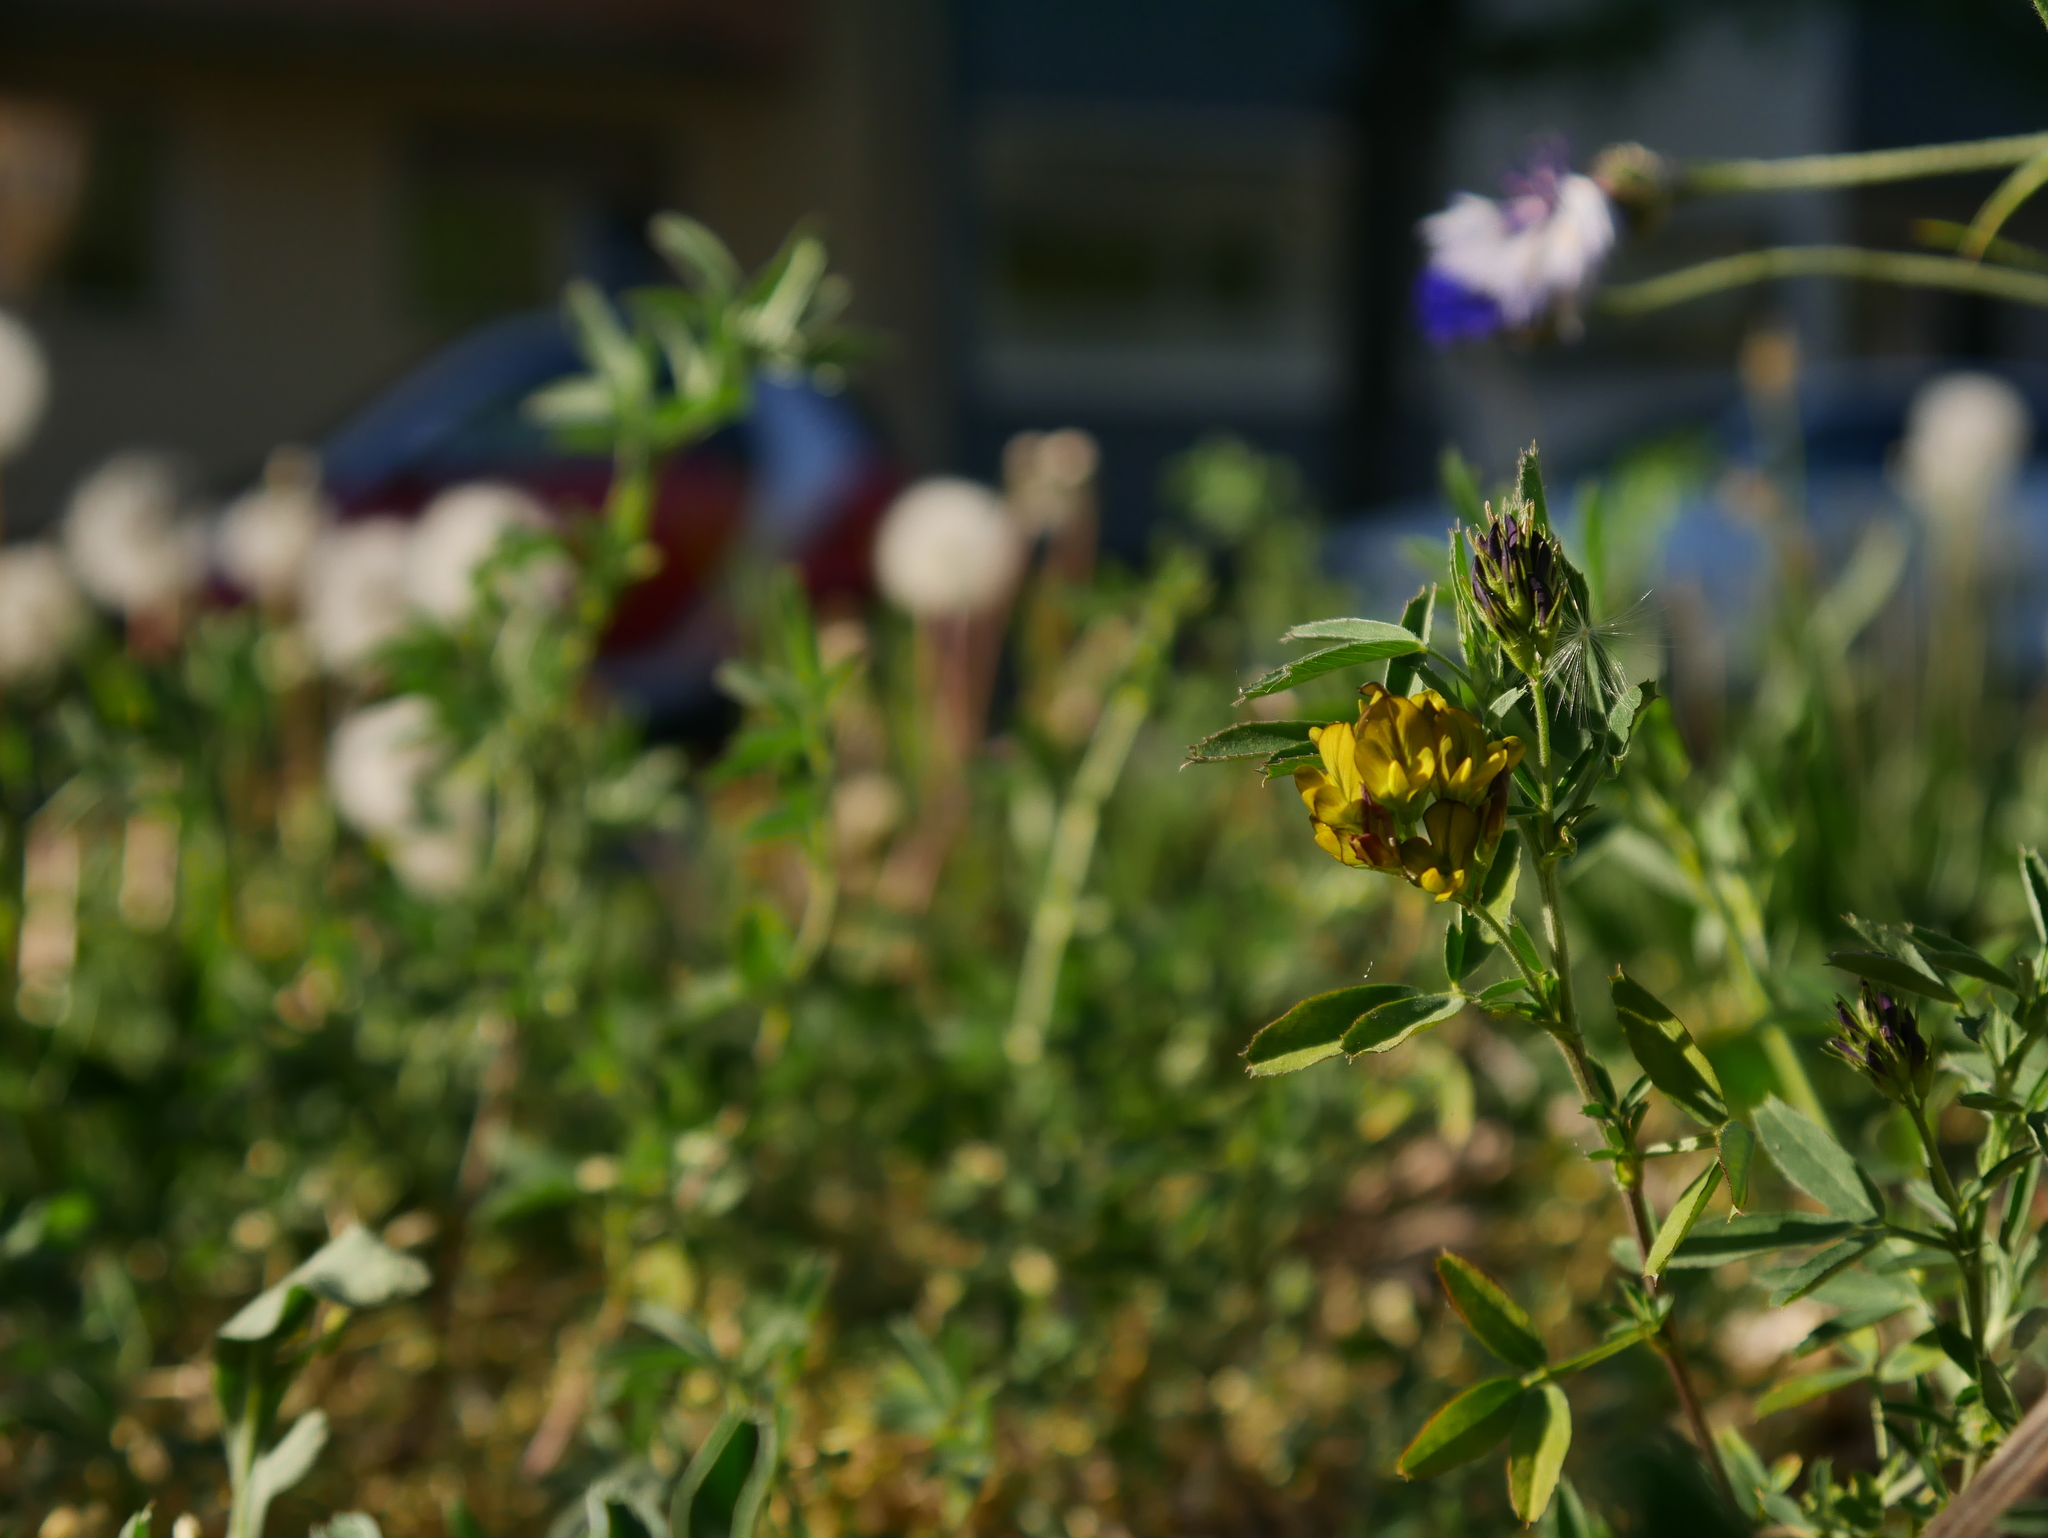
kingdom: Plantae
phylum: Tracheophyta
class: Magnoliopsida
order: Fabales
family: Fabaceae
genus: Medicago
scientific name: Medicago varia
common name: Sand lucerne
